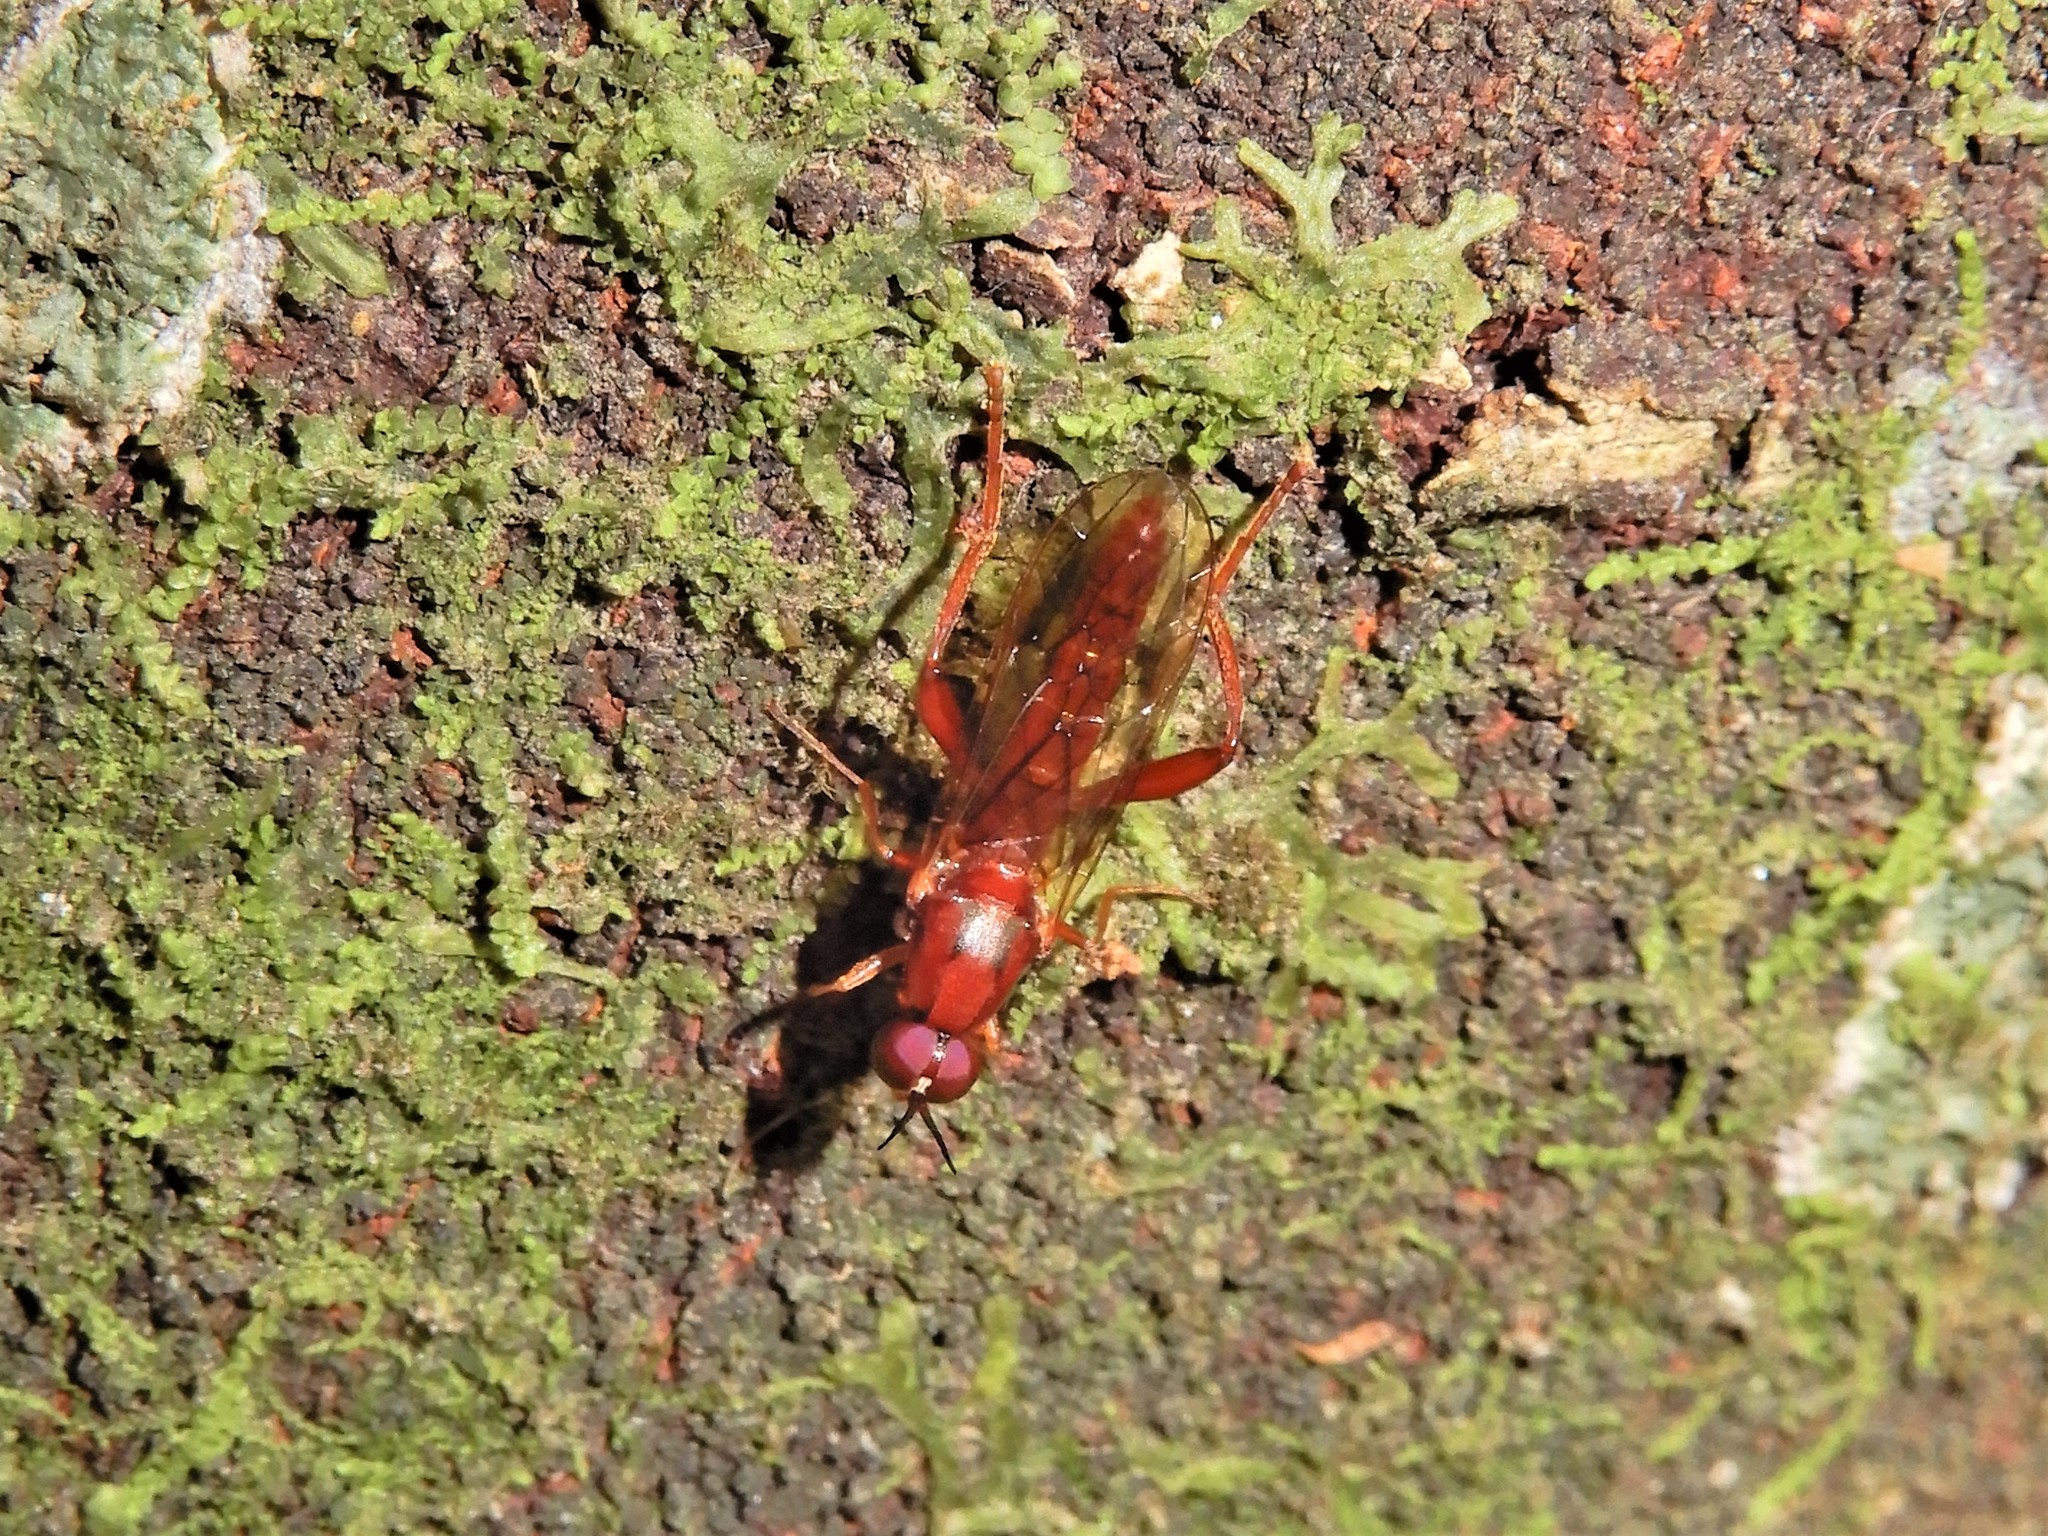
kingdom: Animalia
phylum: Arthropoda
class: Insecta
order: Diptera
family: Stratiomyidae
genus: Benhamyia
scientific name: Benhamyia straznitzkii
